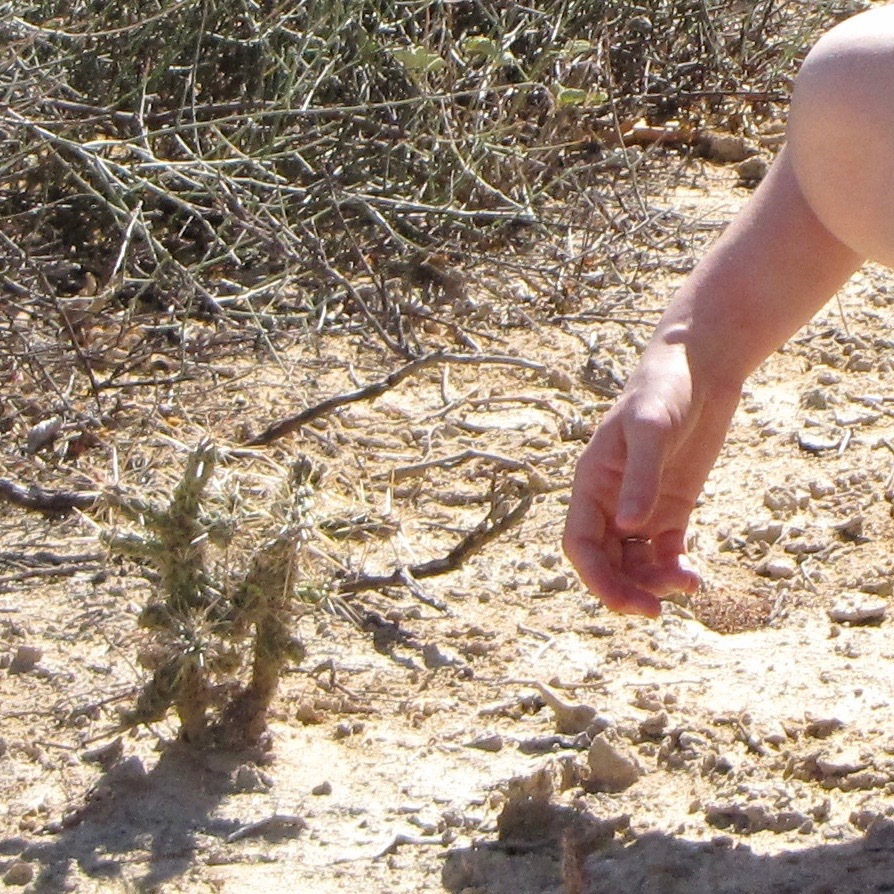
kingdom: Plantae
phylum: Tracheophyta
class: Magnoliopsida
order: Caryophyllales
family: Cactaceae
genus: Cylindropuntia
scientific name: Cylindropuntia cholla
